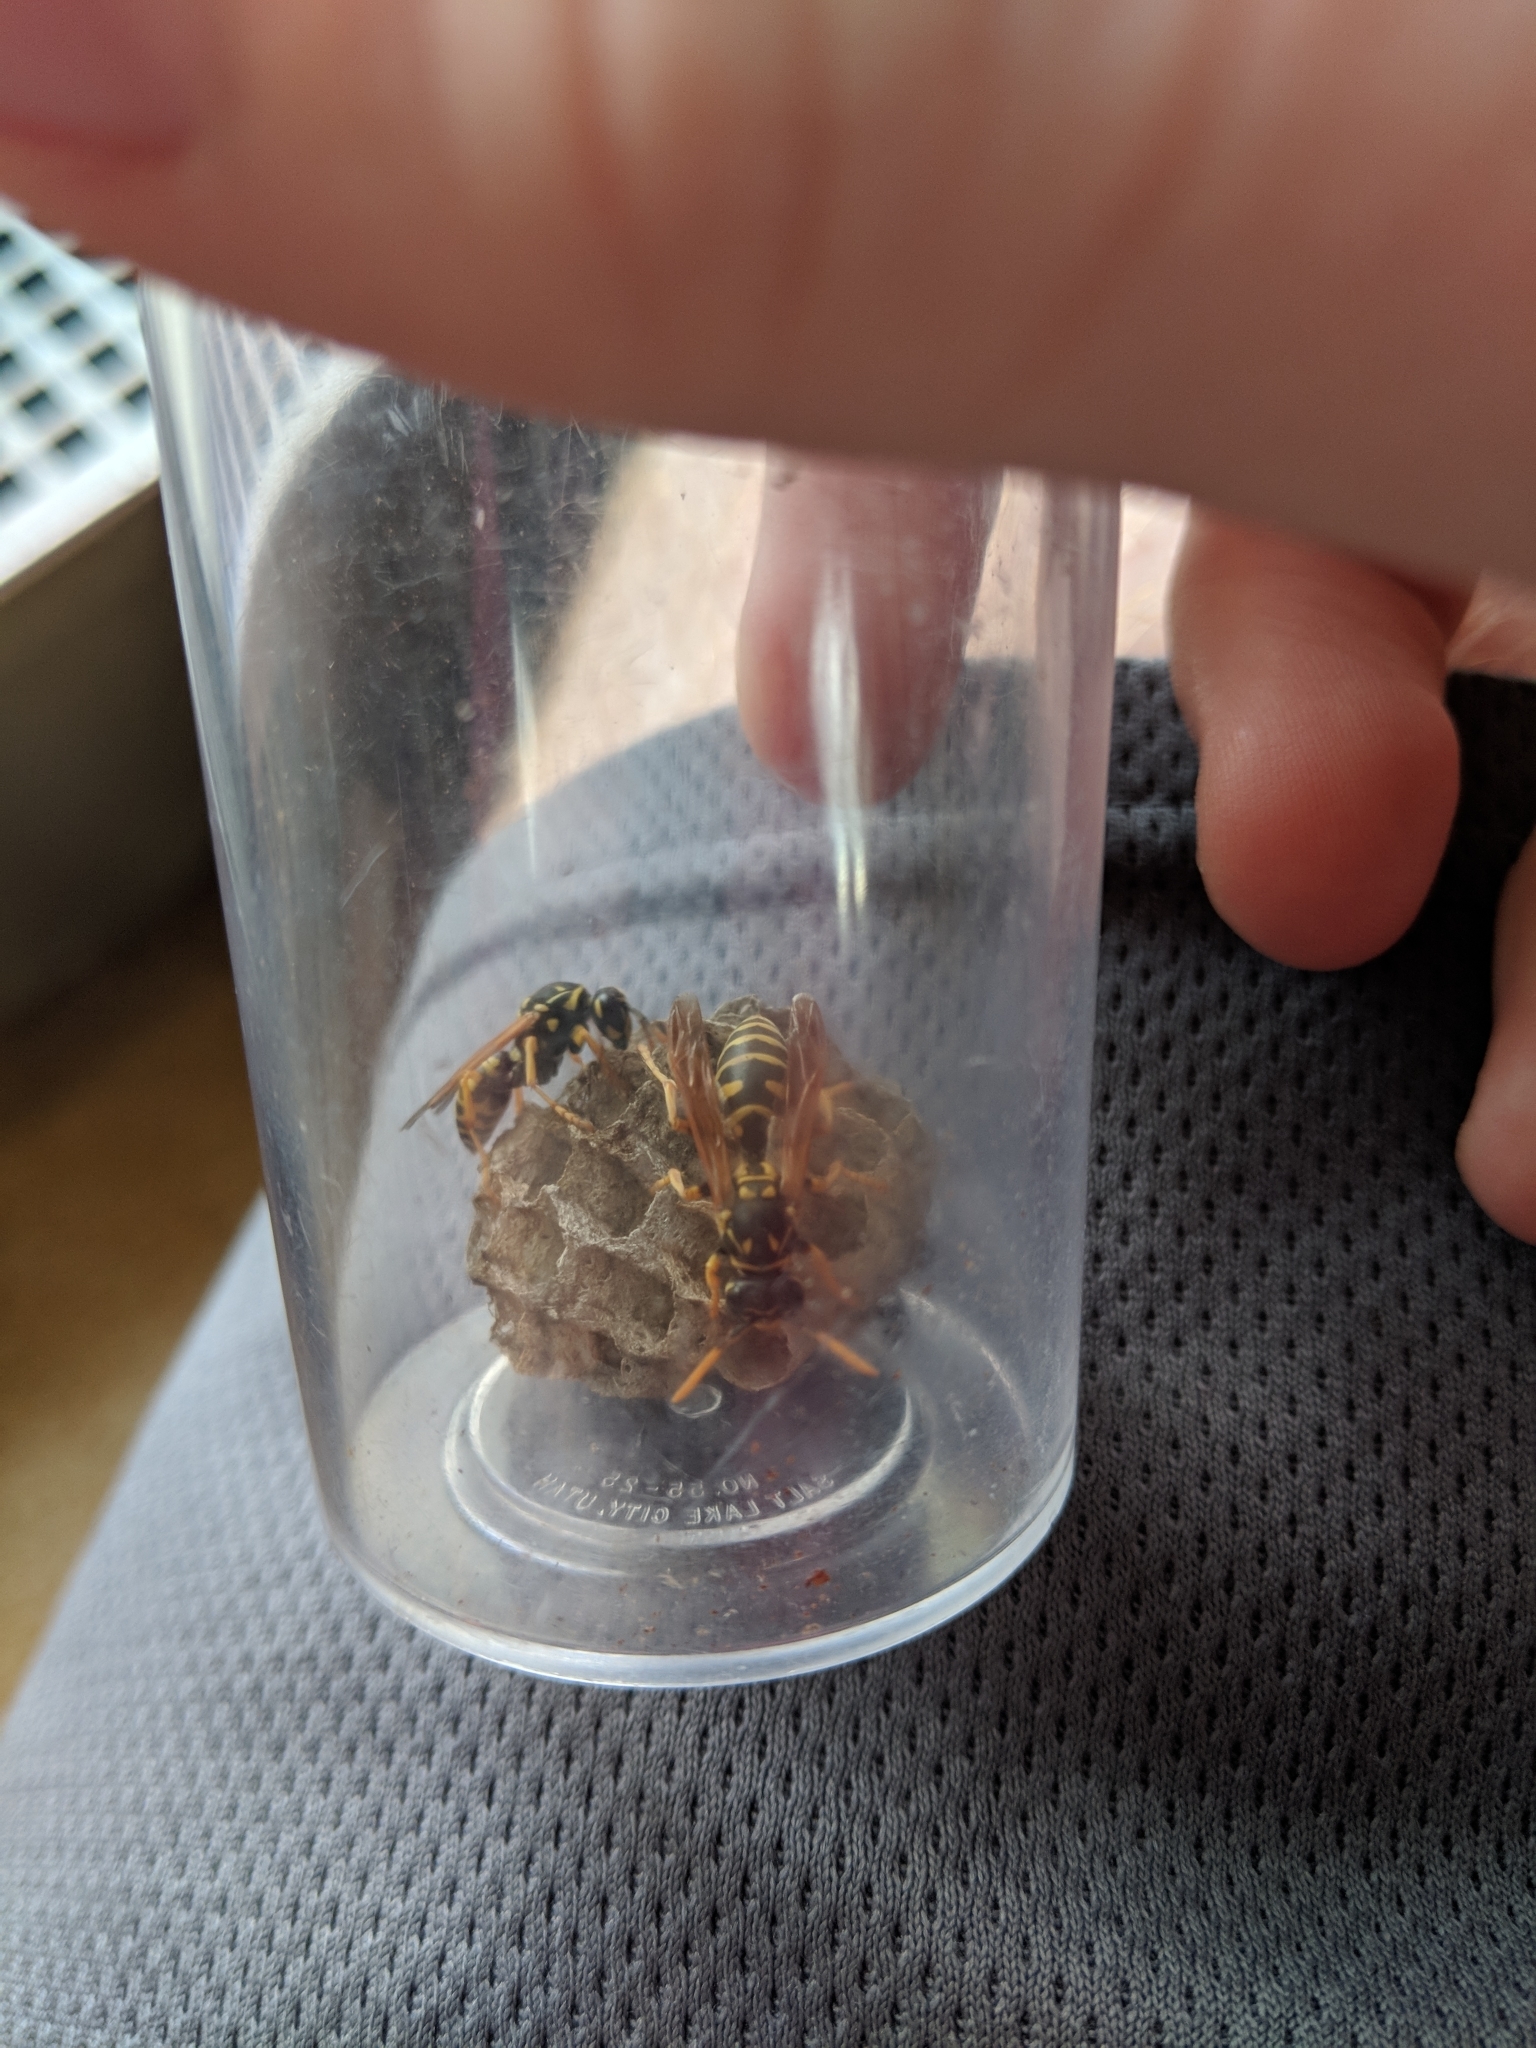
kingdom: Animalia
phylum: Arthropoda
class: Insecta
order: Hymenoptera
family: Eumenidae
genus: Polistes
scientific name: Polistes dominula
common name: Paper wasp
